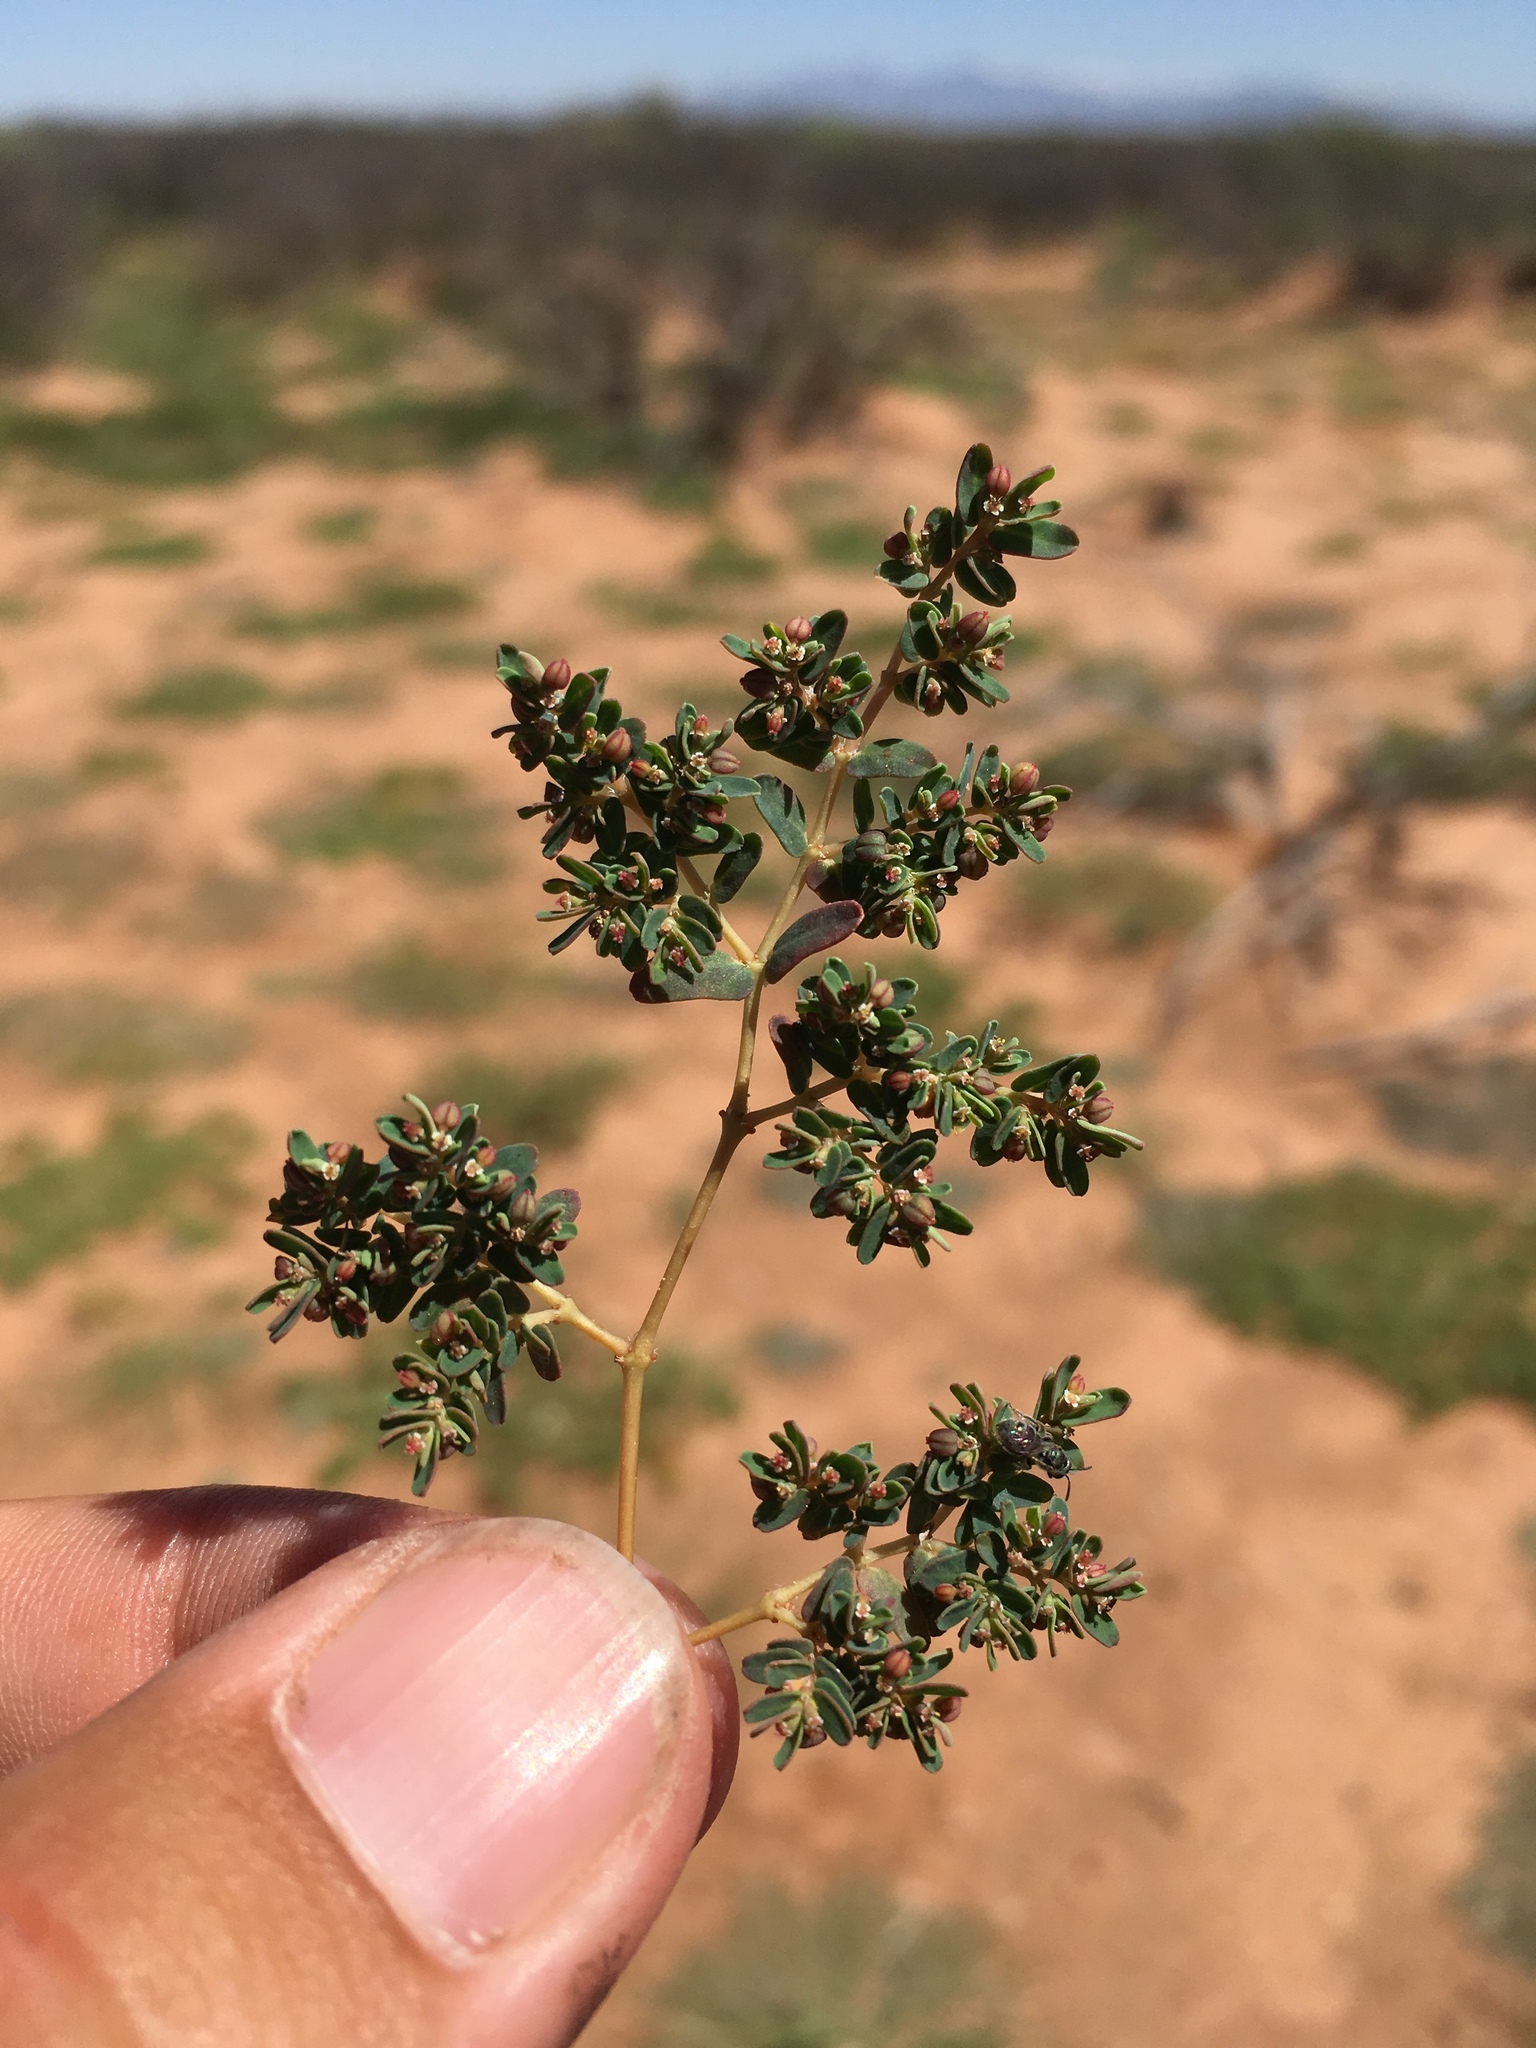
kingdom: Plantae
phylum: Tracheophyta
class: Magnoliopsida
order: Malpighiales
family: Euphorbiaceae
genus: Euphorbia
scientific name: Euphorbia glyptosperma
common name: Corrugate-seeded spurge
